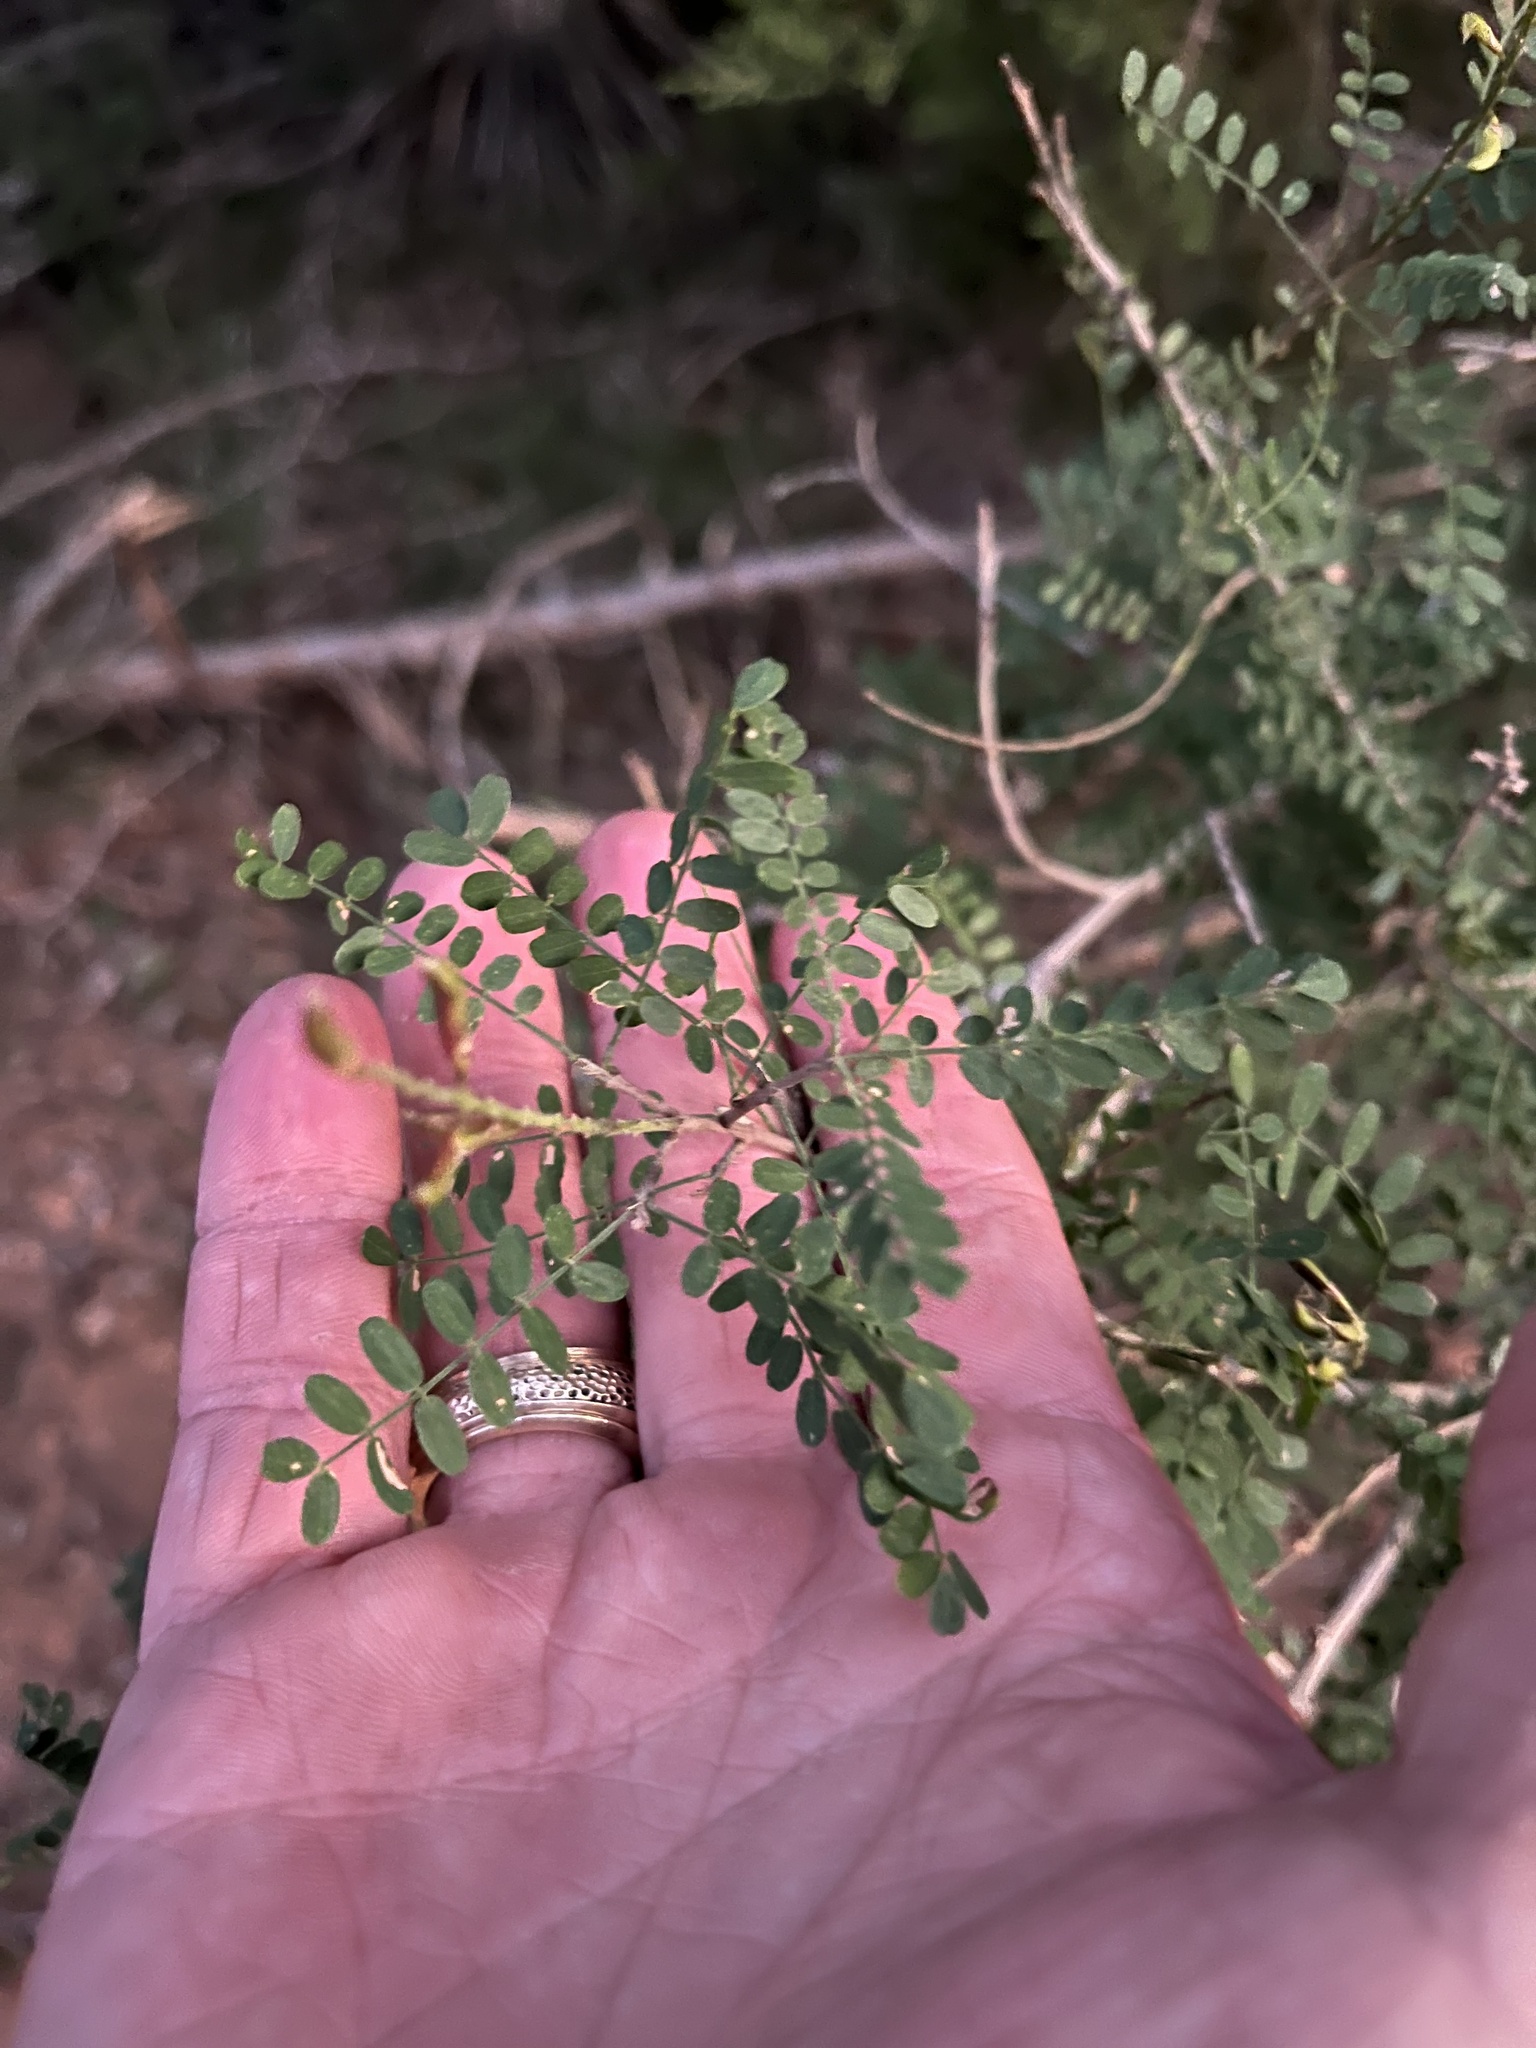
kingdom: Plantae
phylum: Tracheophyta
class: Magnoliopsida
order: Fabales
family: Fabaceae
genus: Eysenhardtia
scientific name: Eysenhardtia texana
